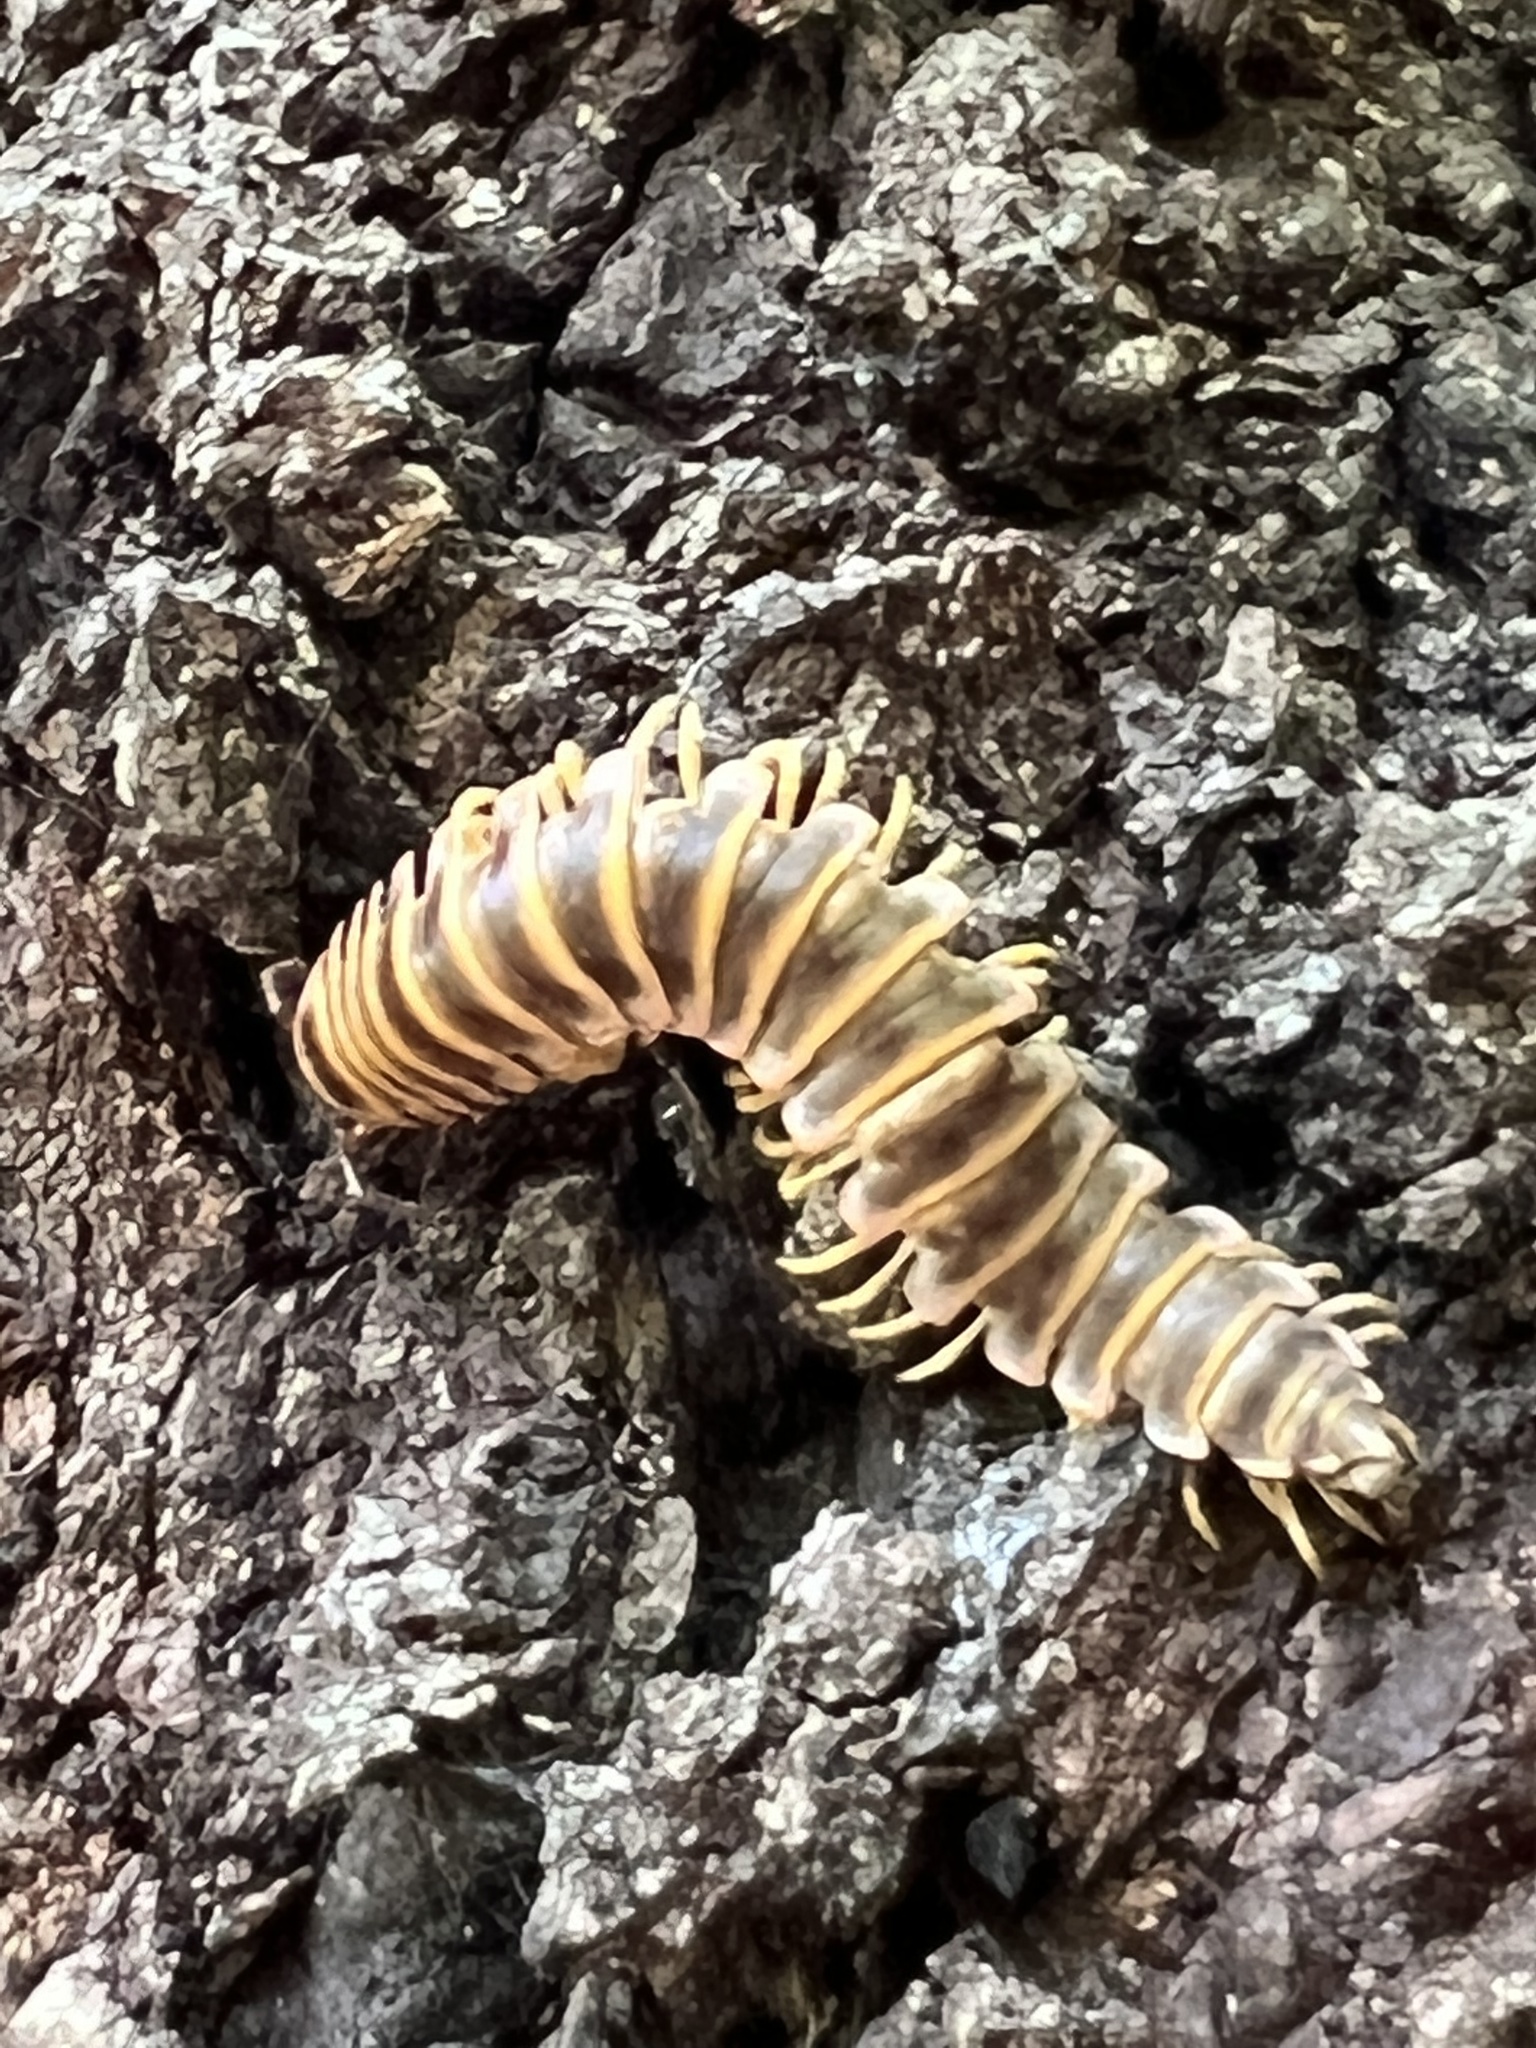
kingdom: Fungi
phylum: Entomophthoromycota
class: Entomophthoromycetes
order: Entomophthorales
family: Entomophthoraceae
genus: Arthrophaga
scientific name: Arthrophaga myriapodina
